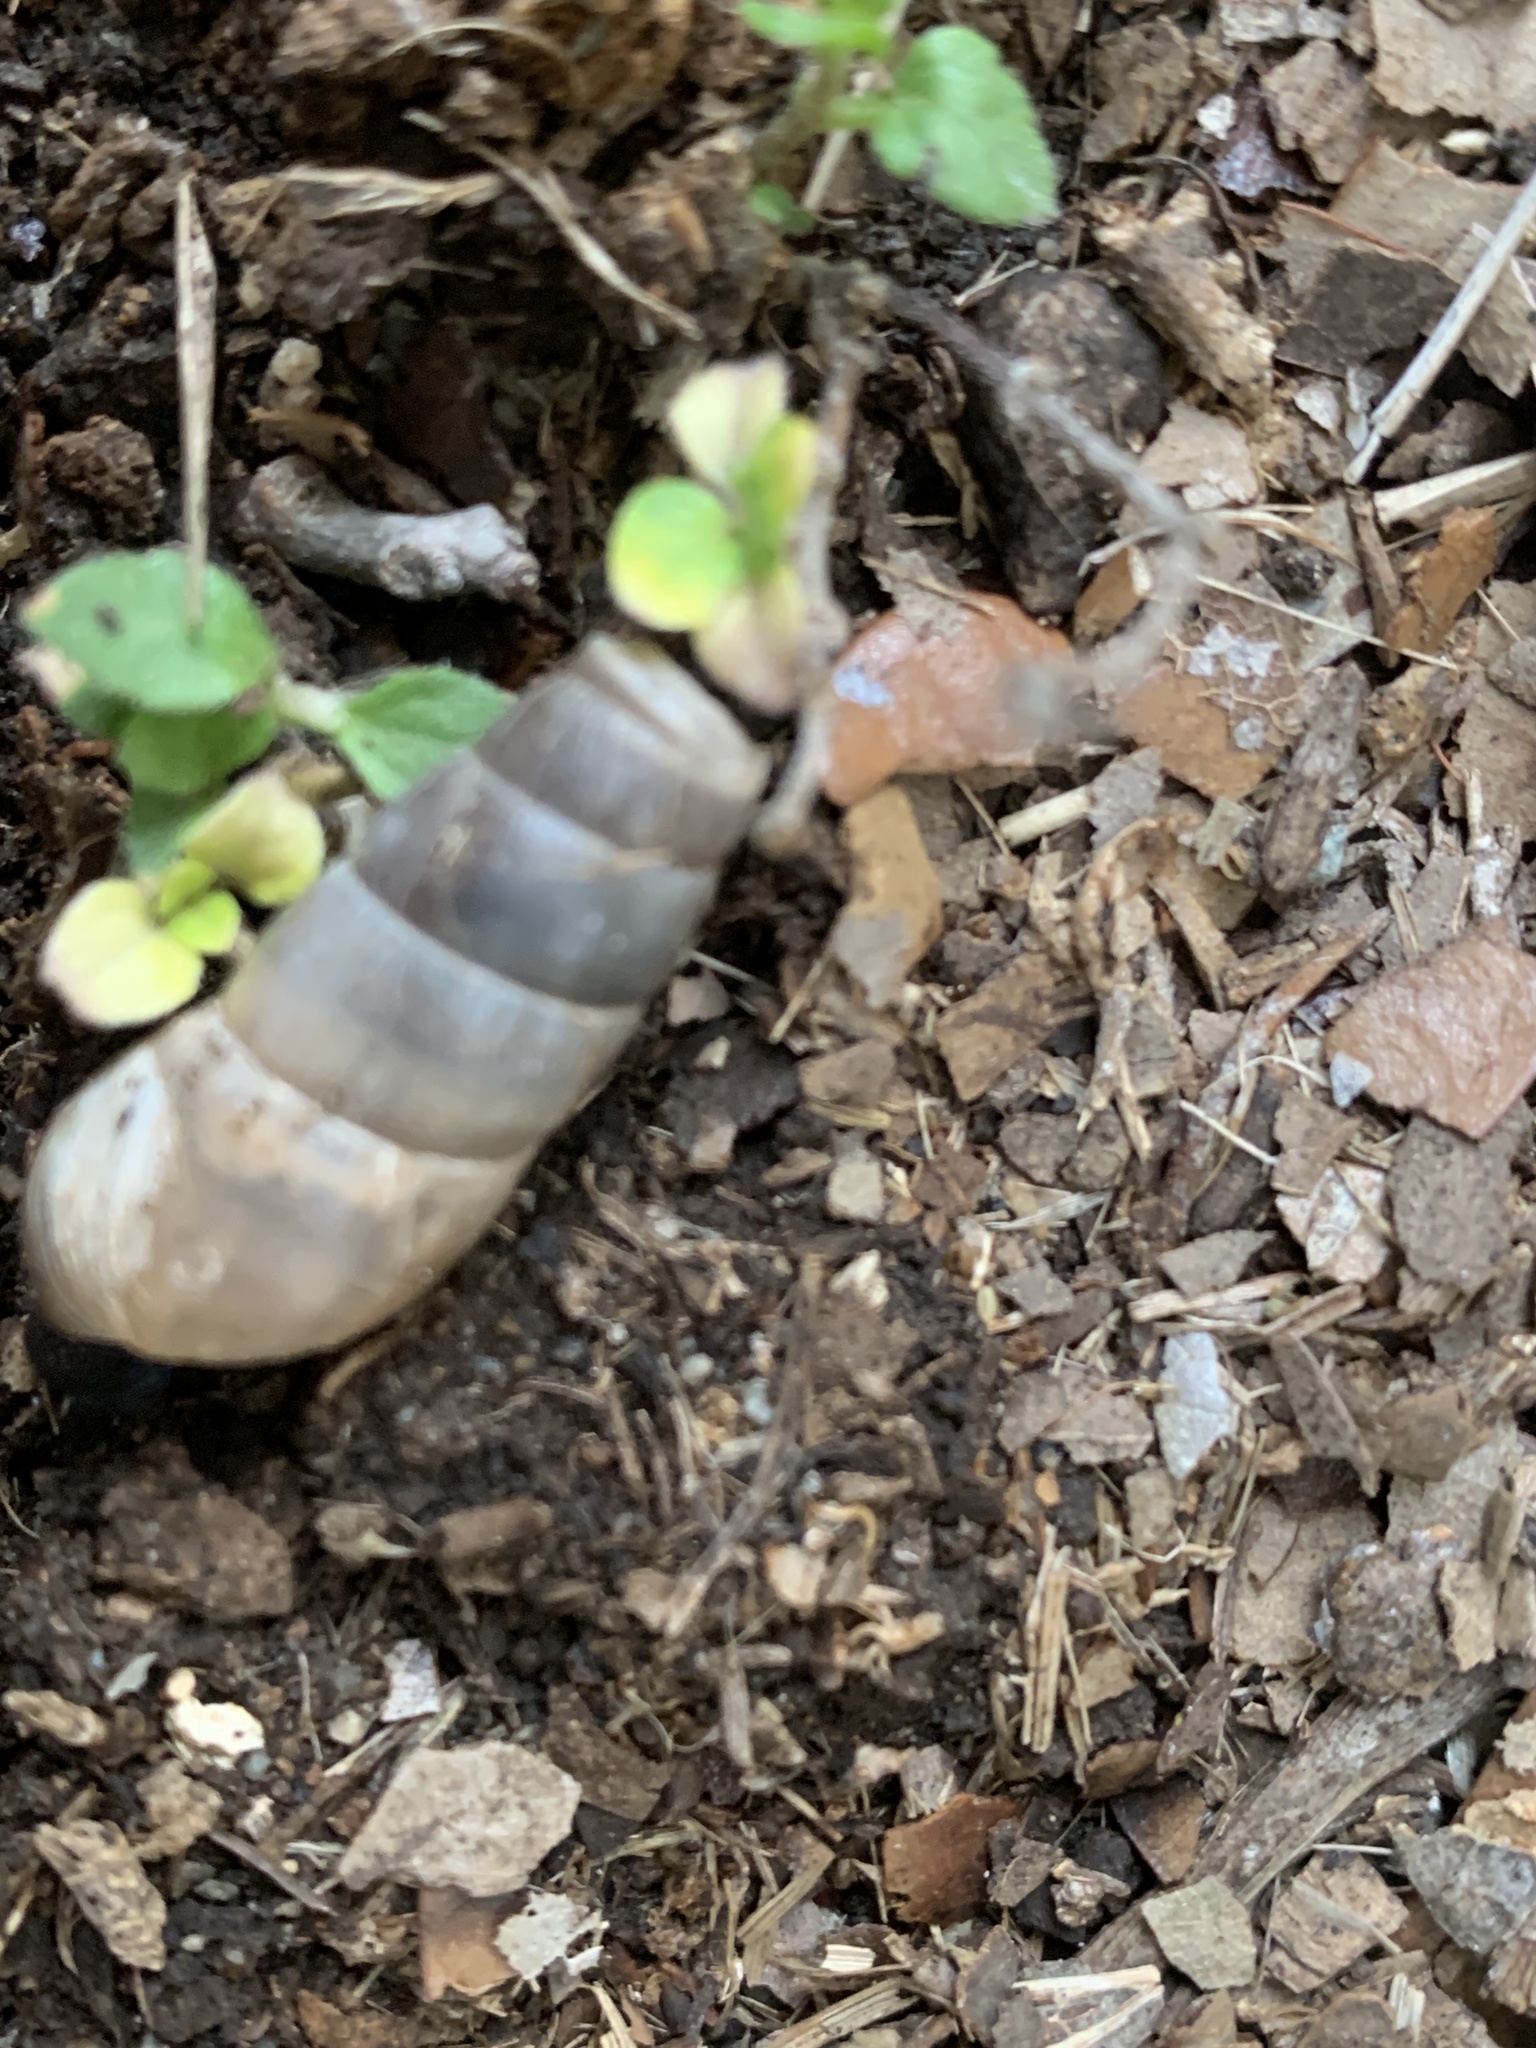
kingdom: Animalia
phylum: Mollusca
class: Gastropoda
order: Stylommatophora
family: Achatinidae
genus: Rumina
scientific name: Rumina decollata
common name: Decollate snail
